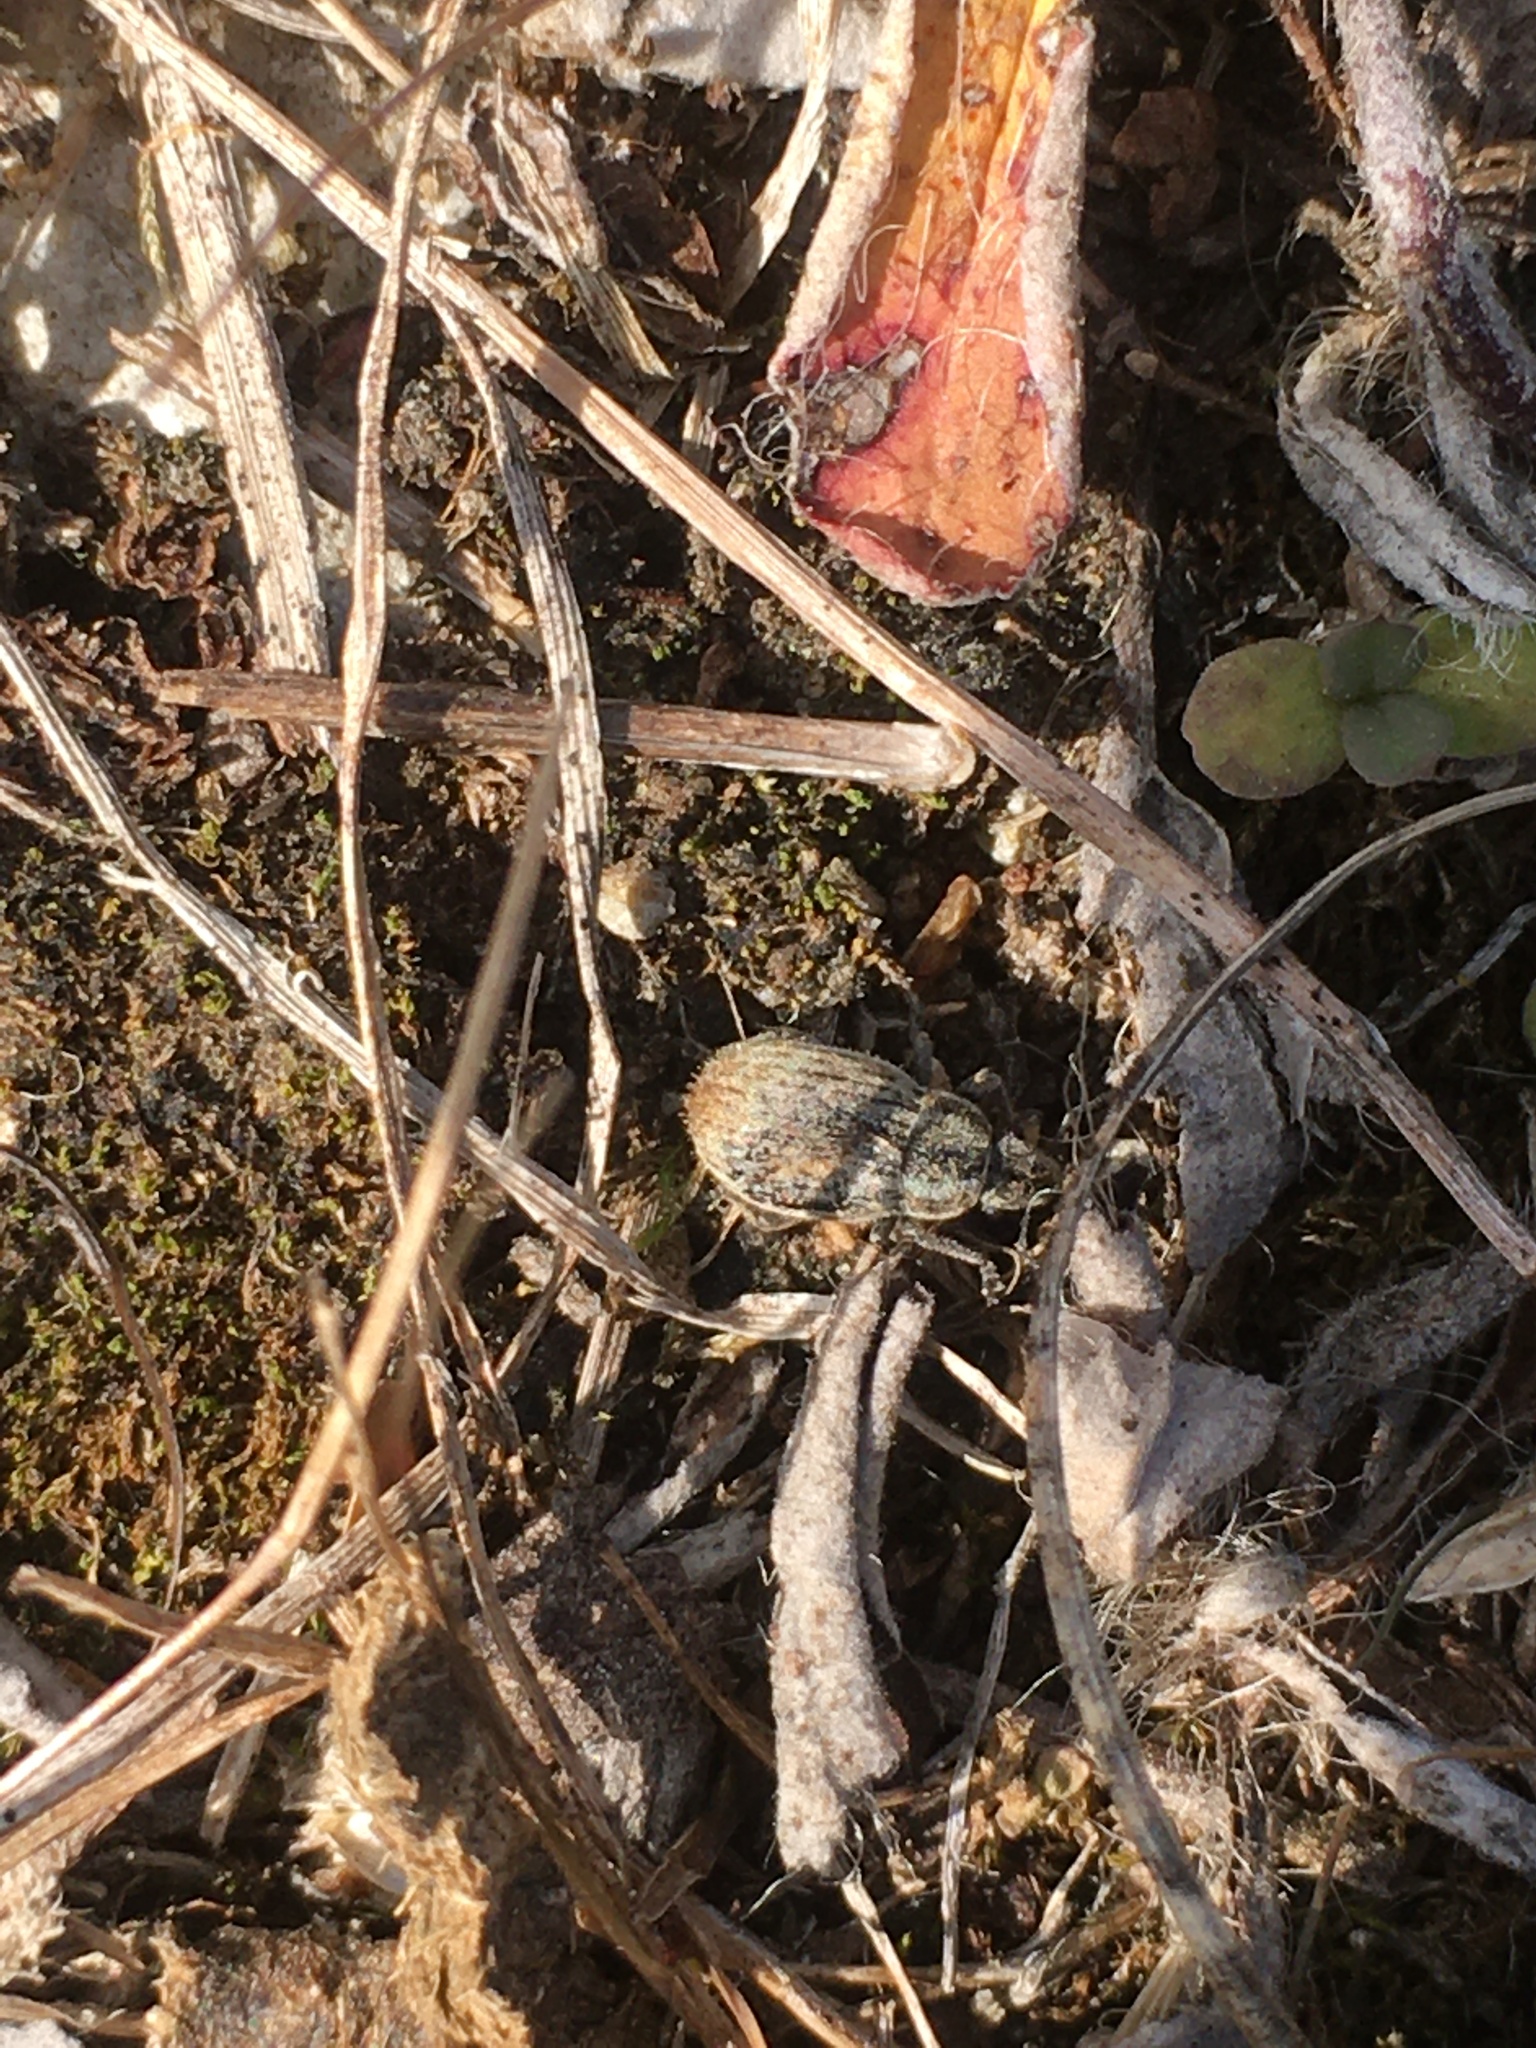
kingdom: Animalia
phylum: Arthropoda
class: Insecta
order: Coleoptera
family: Curculionidae
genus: Strophosoma
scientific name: Strophosoma faber
